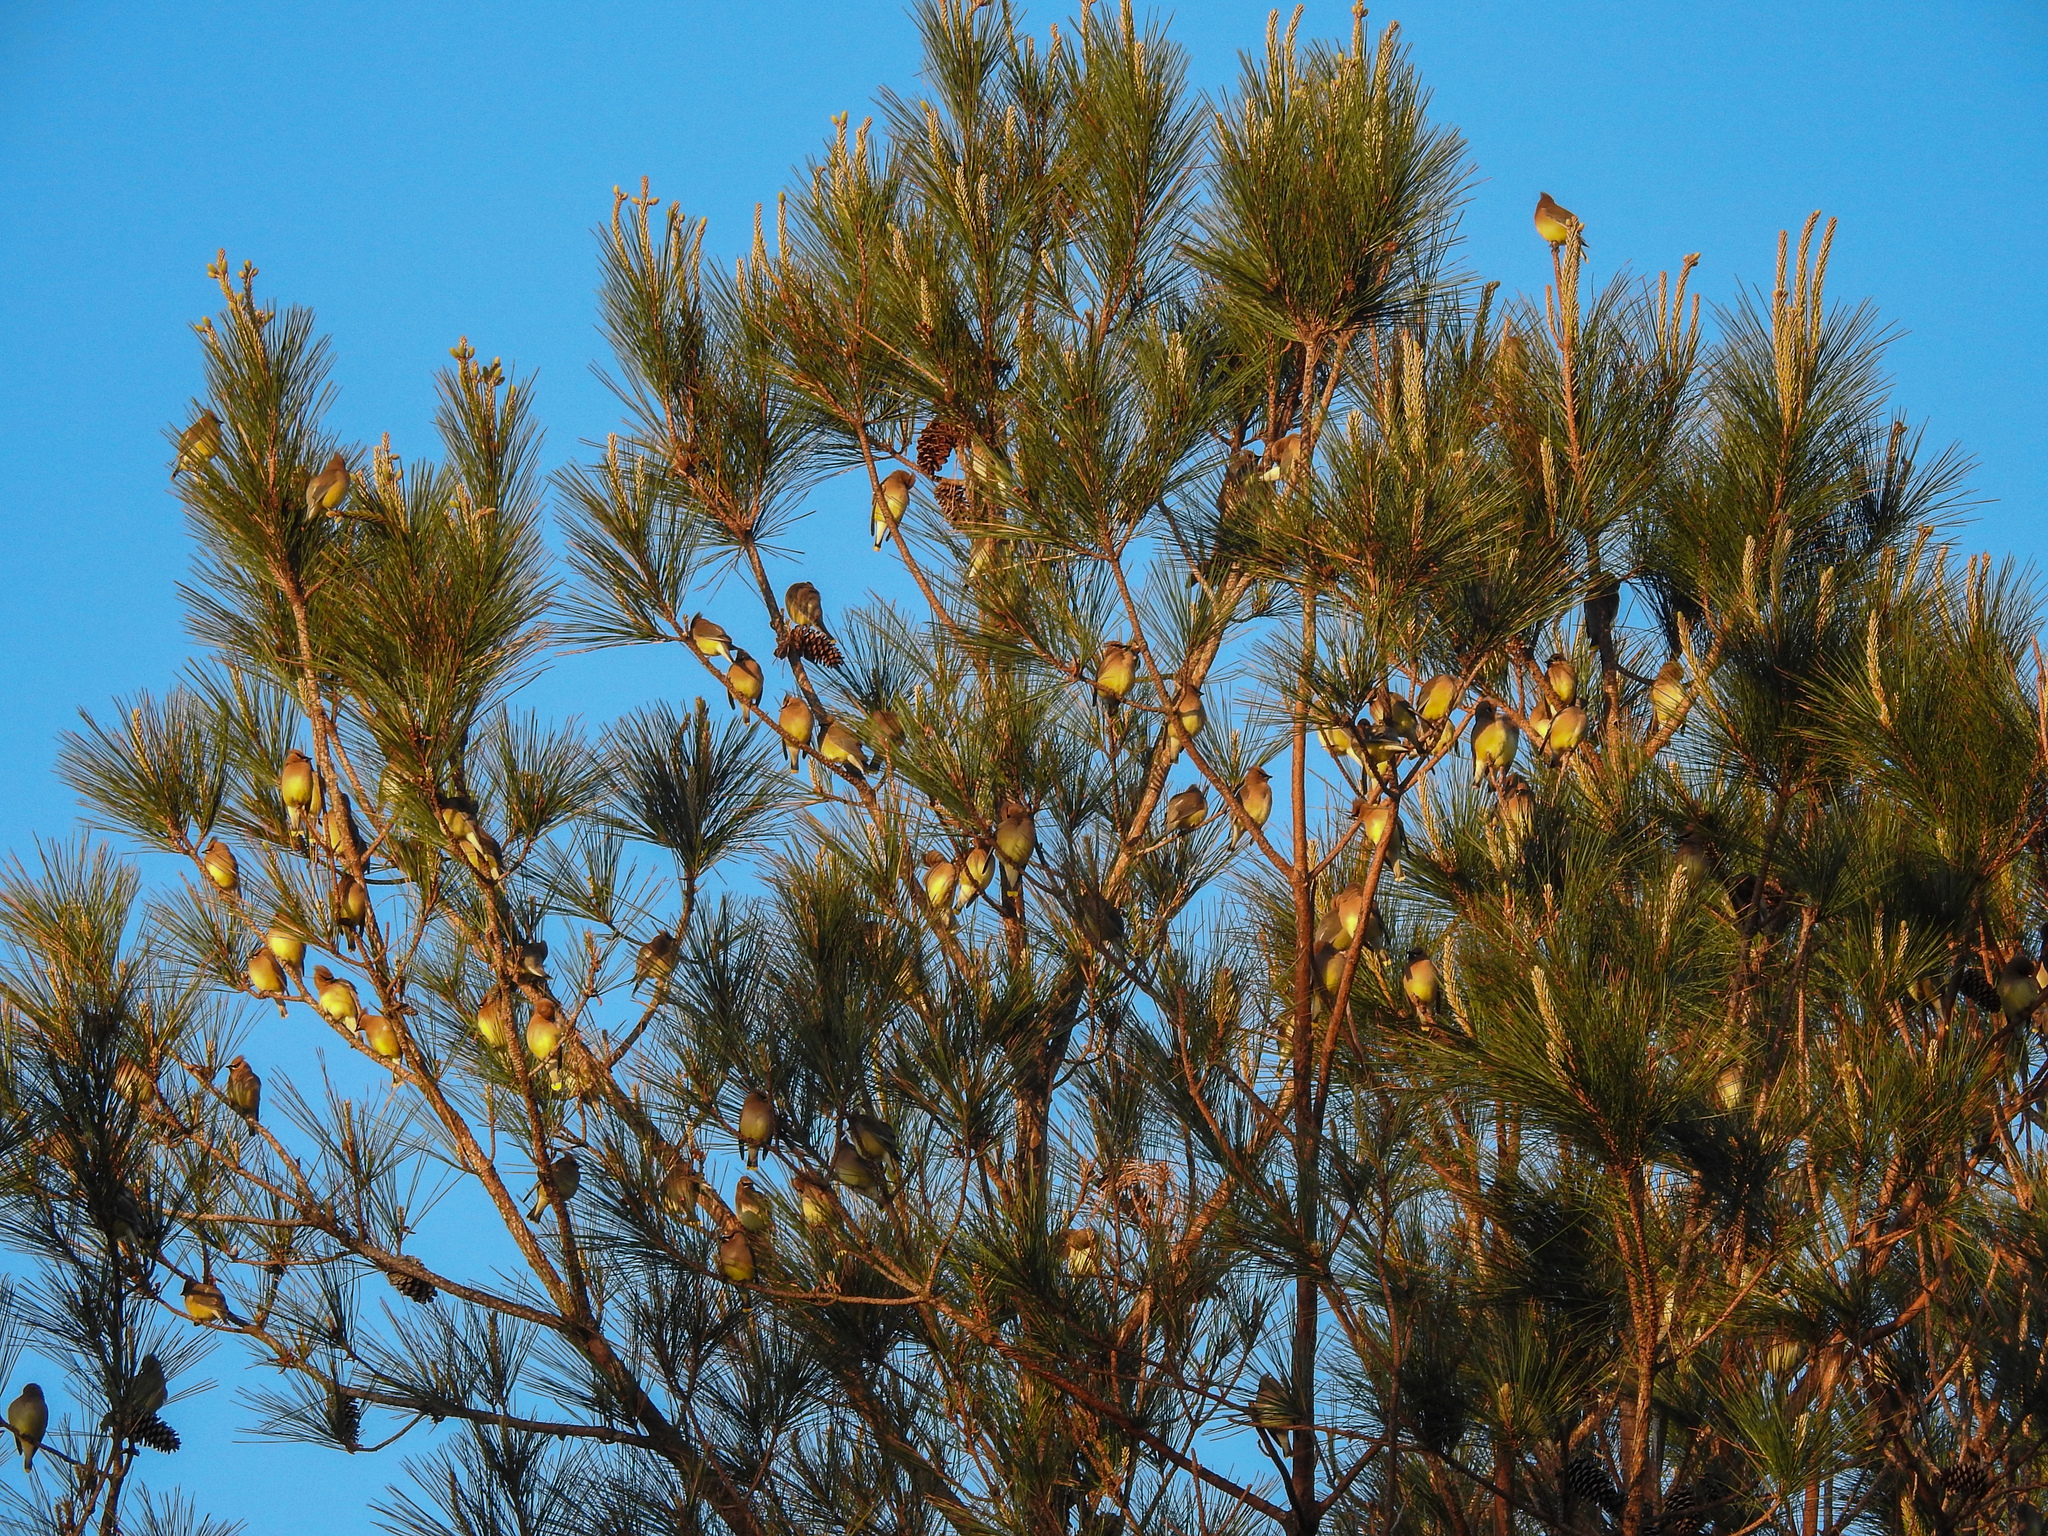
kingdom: Animalia
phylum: Chordata
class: Aves
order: Passeriformes
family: Bombycillidae
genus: Bombycilla
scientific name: Bombycilla cedrorum
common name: Cedar waxwing
